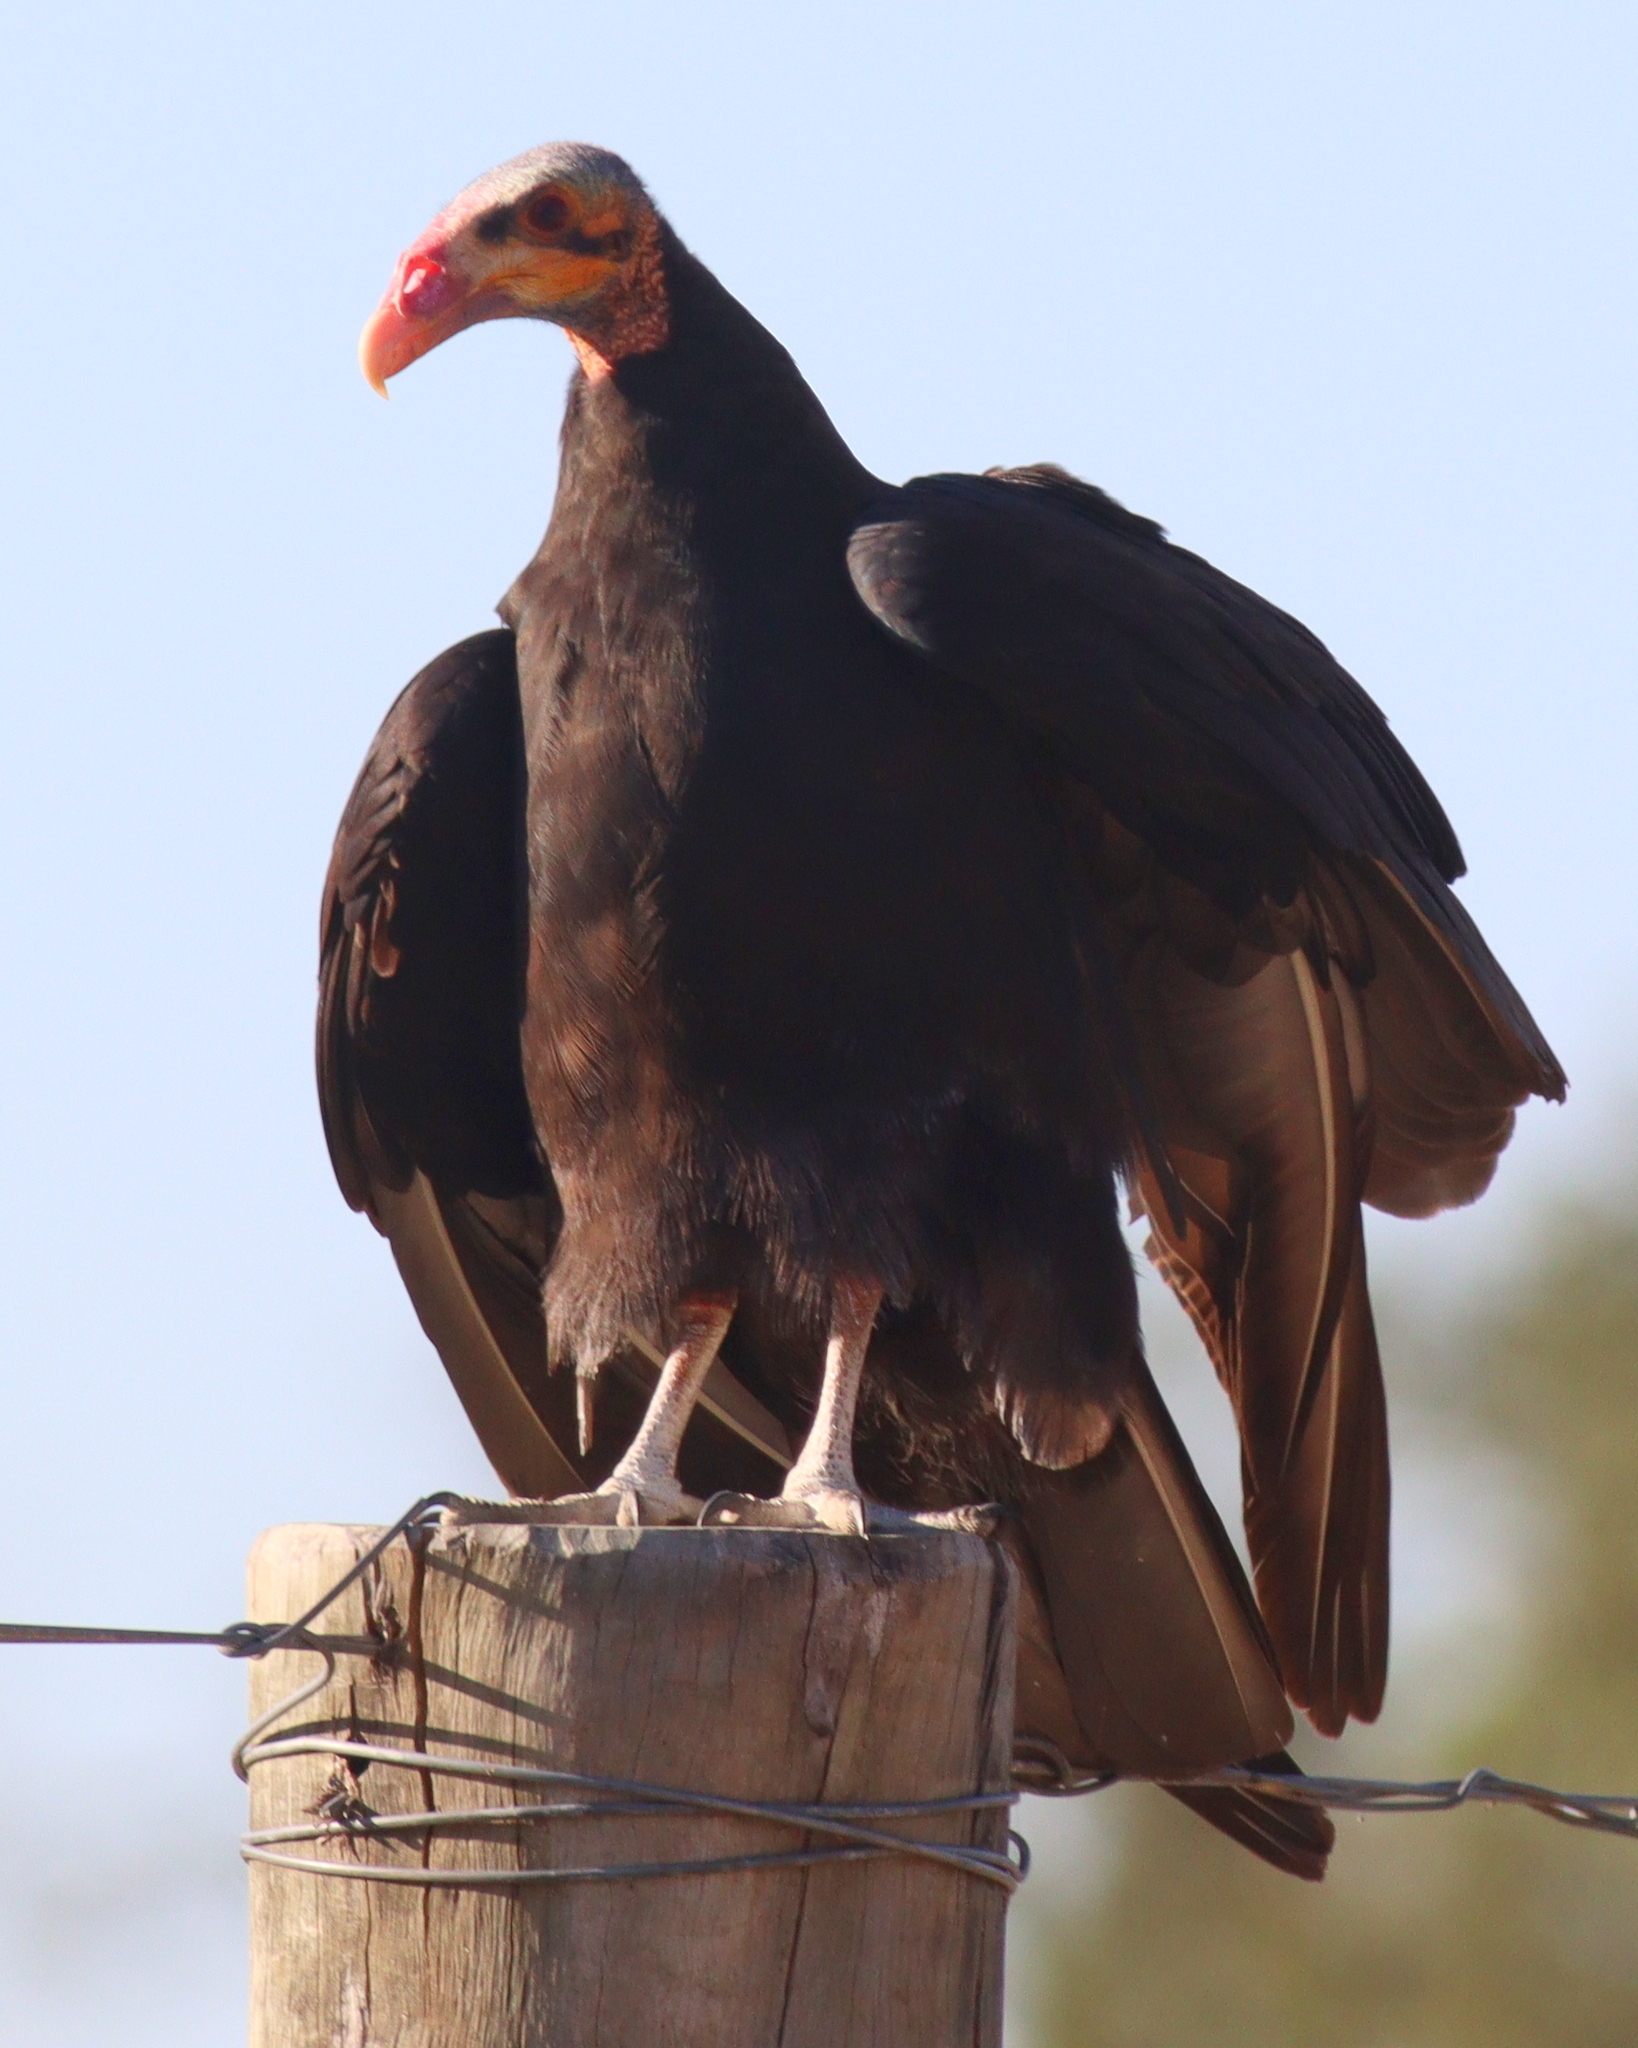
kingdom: Animalia
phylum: Chordata
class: Aves
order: Accipitriformes
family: Cathartidae
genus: Cathartes
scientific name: Cathartes burrovianus
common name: Lesser yellow-headed vulture
